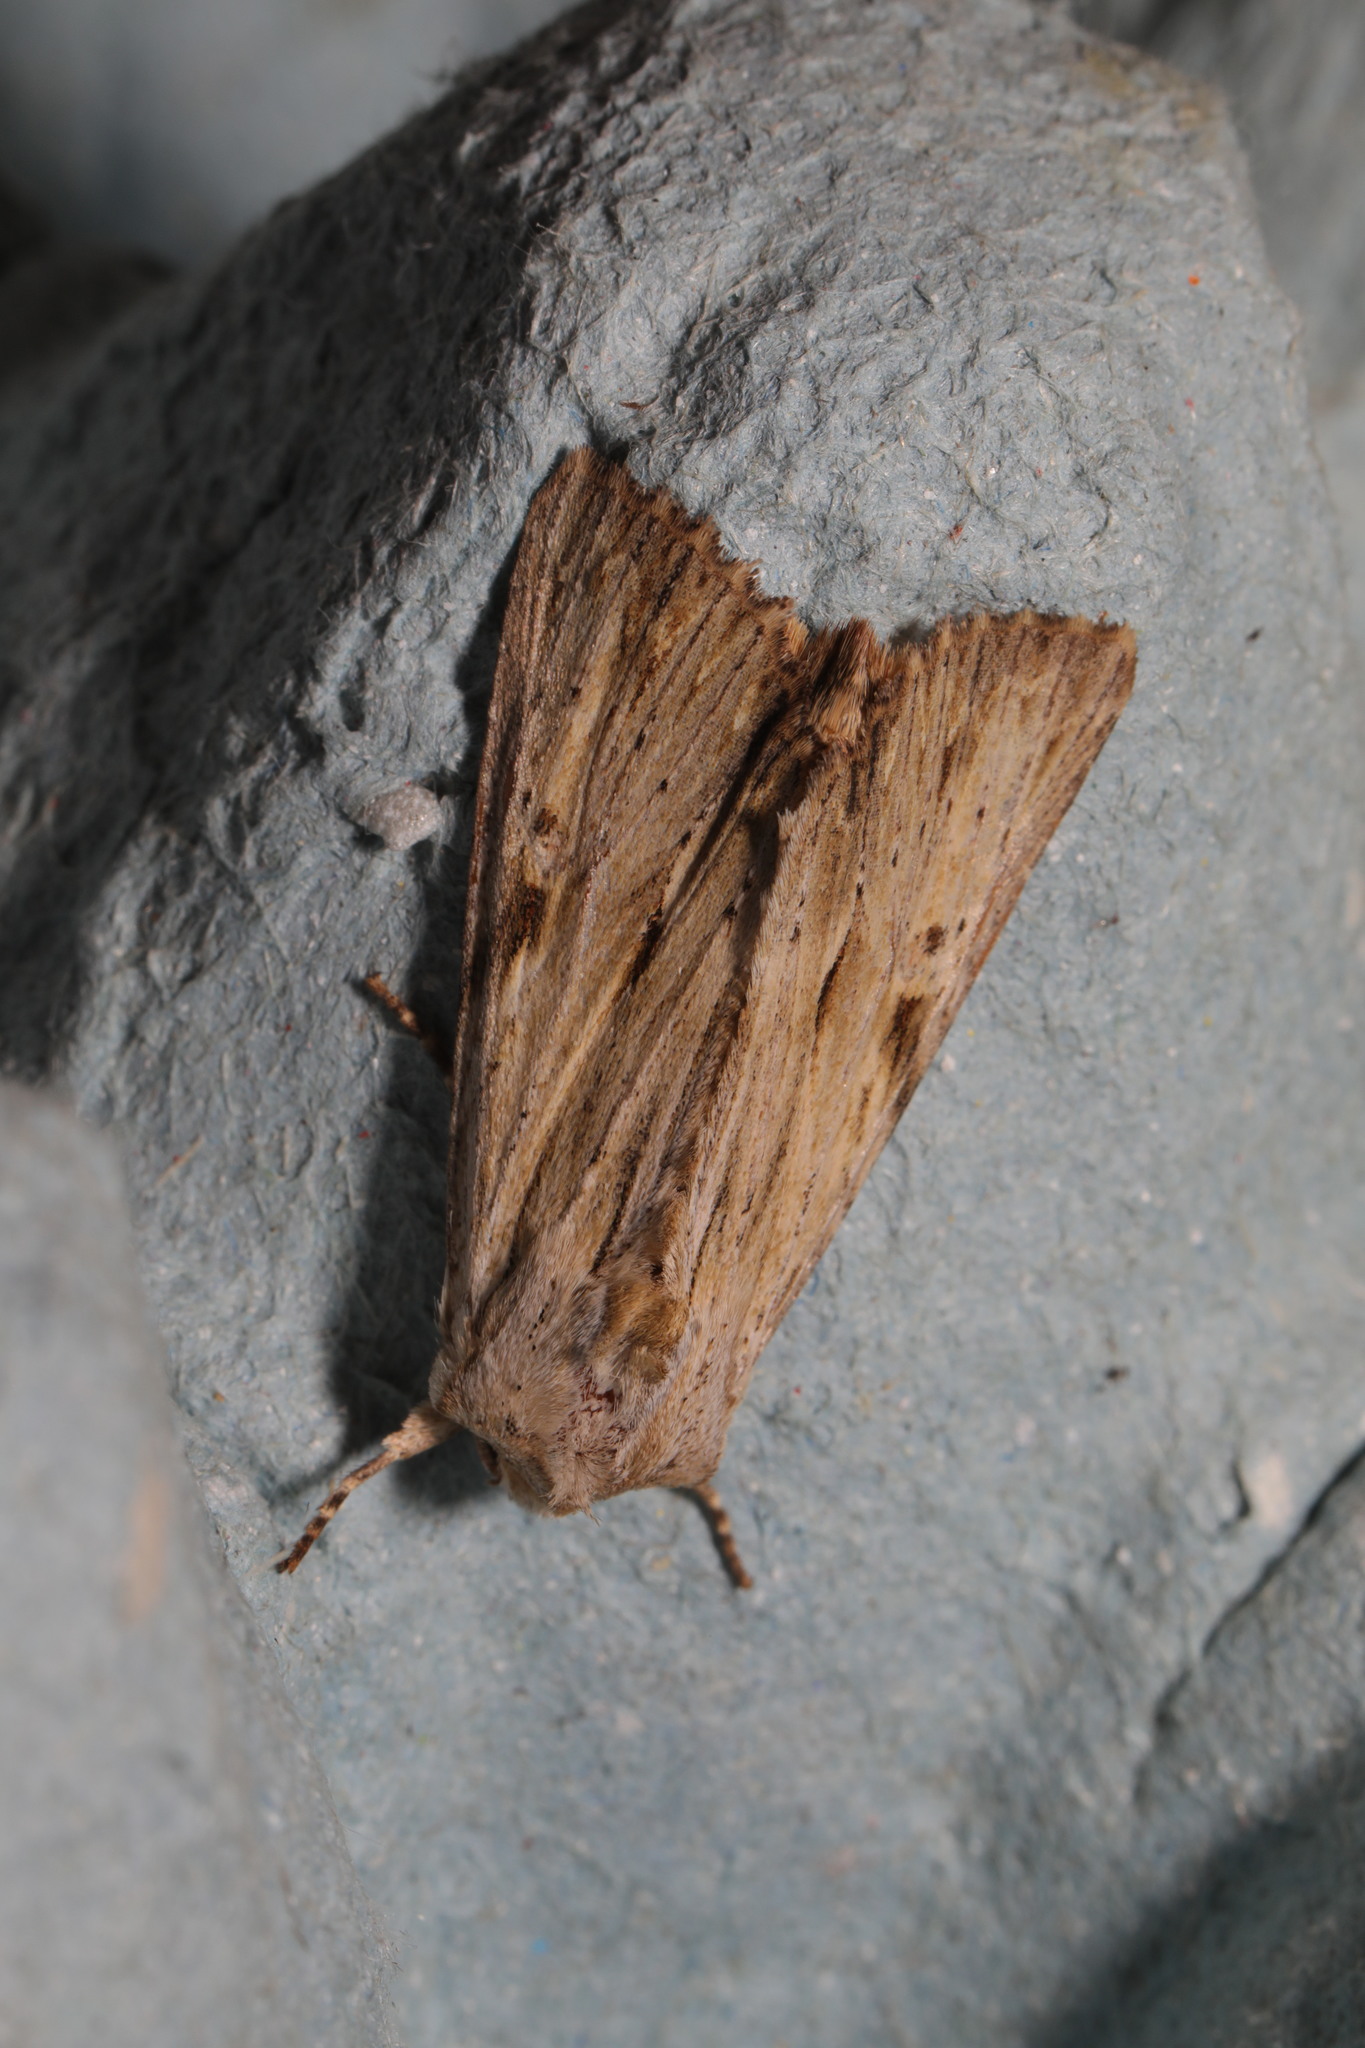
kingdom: Animalia
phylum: Arthropoda
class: Insecta
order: Lepidoptera
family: Noctuidae
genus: Apamea
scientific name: Apamea lithoxylaea
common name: Light arches
